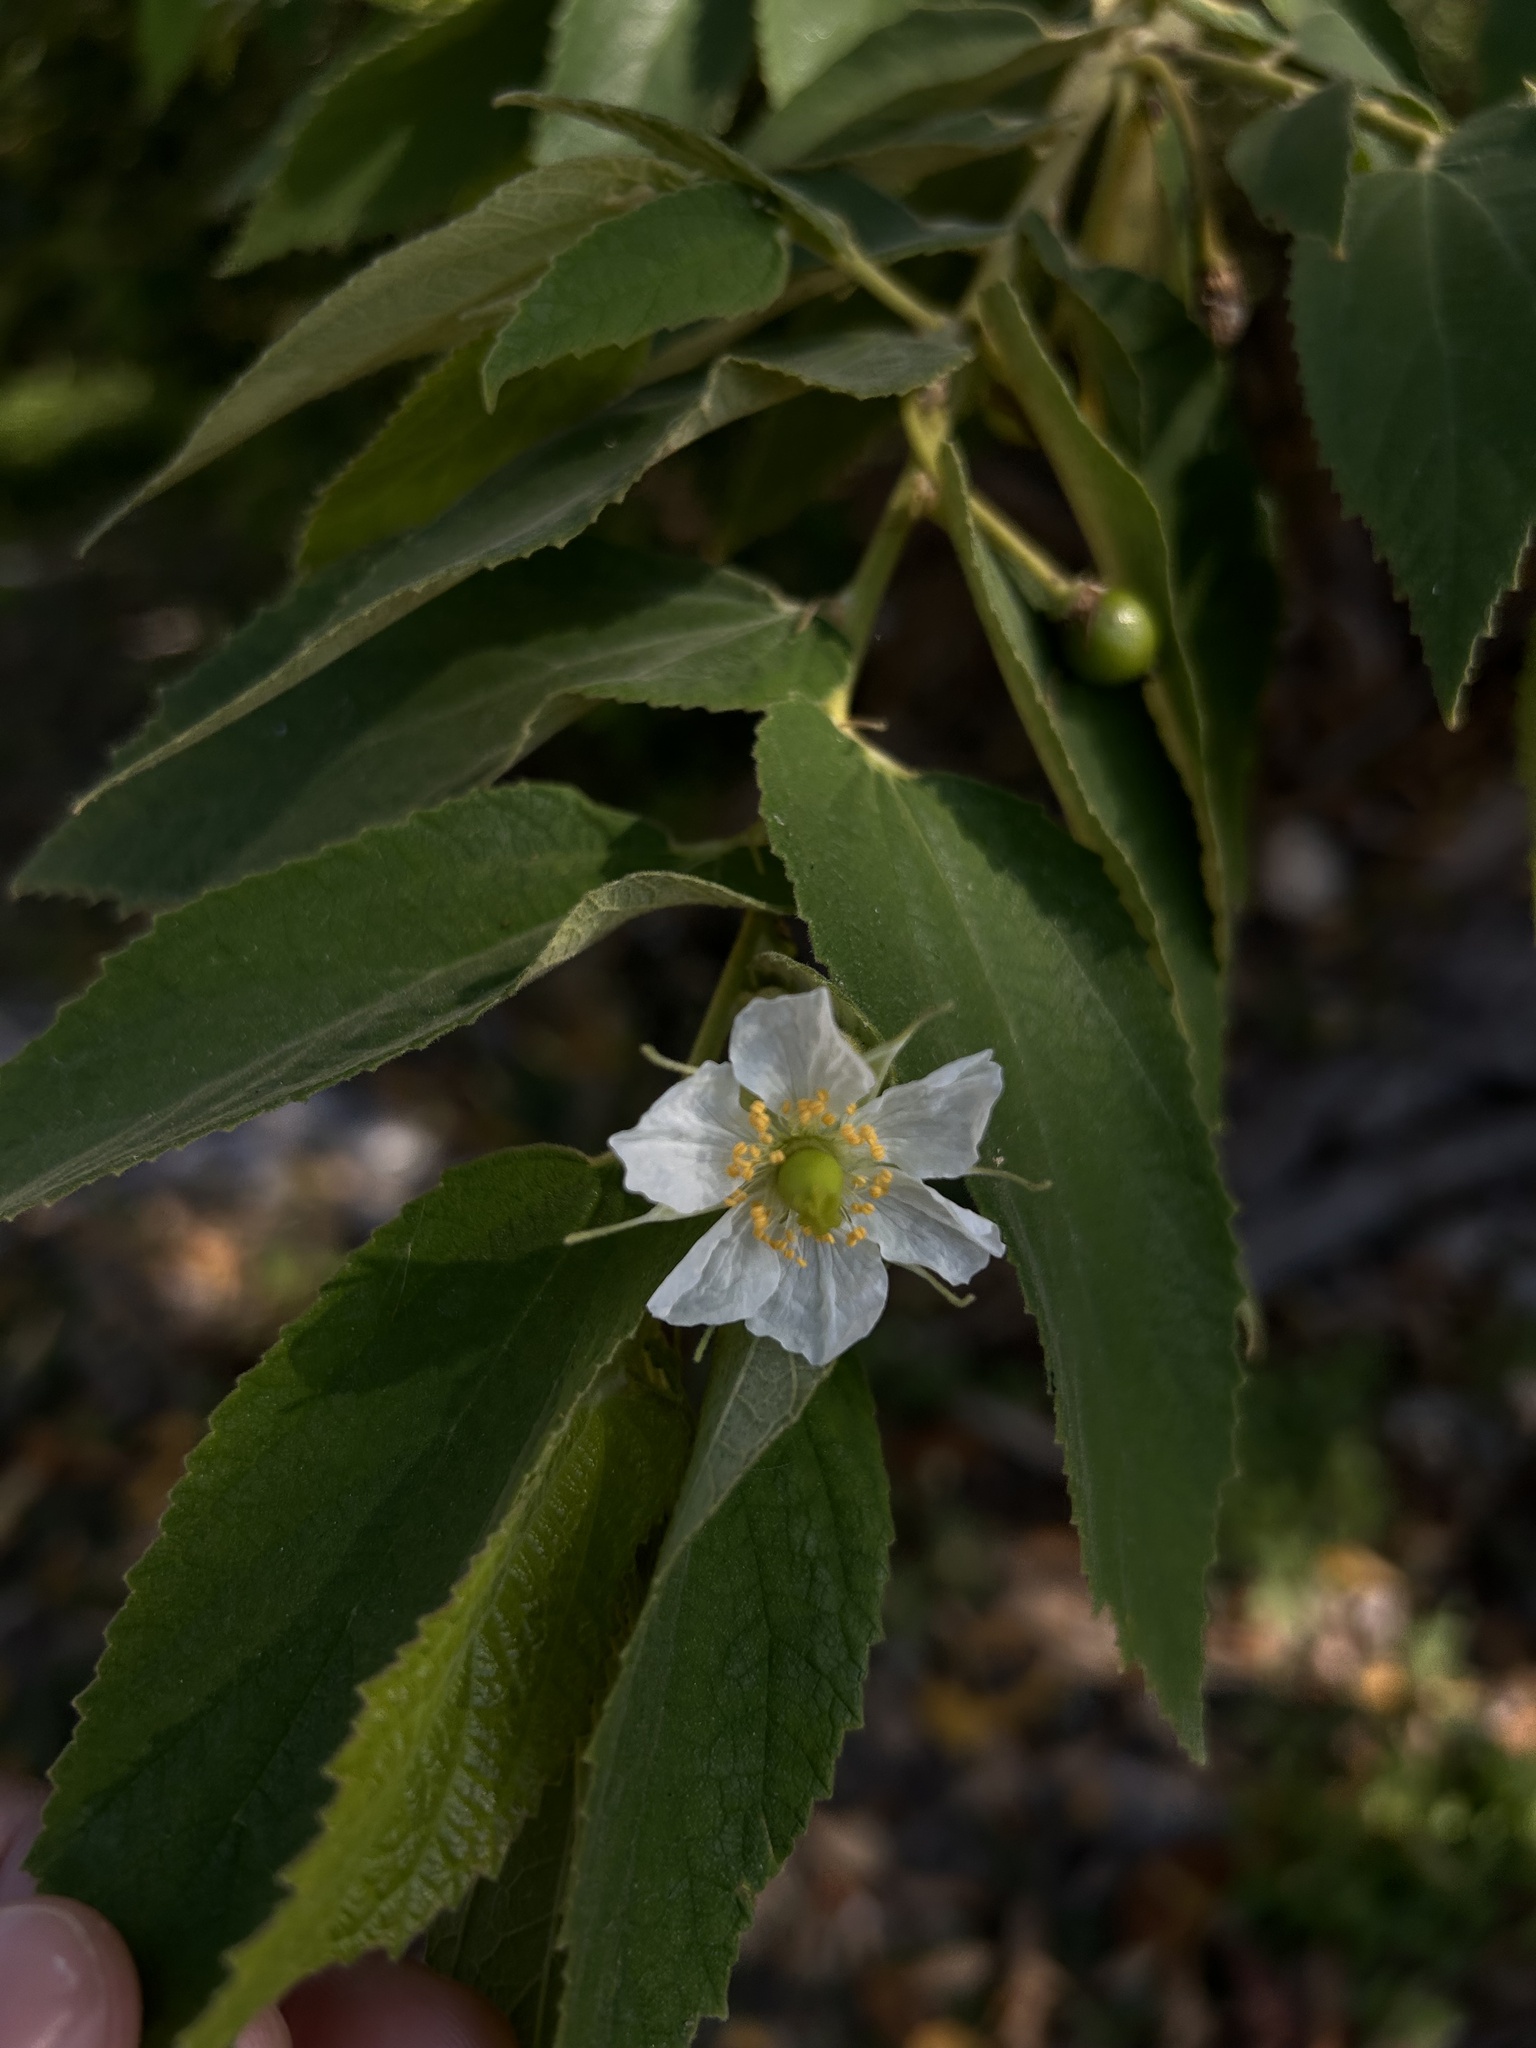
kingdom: Plantae
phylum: Tracheophyta
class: Magnoliopsida
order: Malvales
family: Muntingiaceae
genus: Muntingia
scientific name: Muntingia calabura
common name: Strawberrytree
